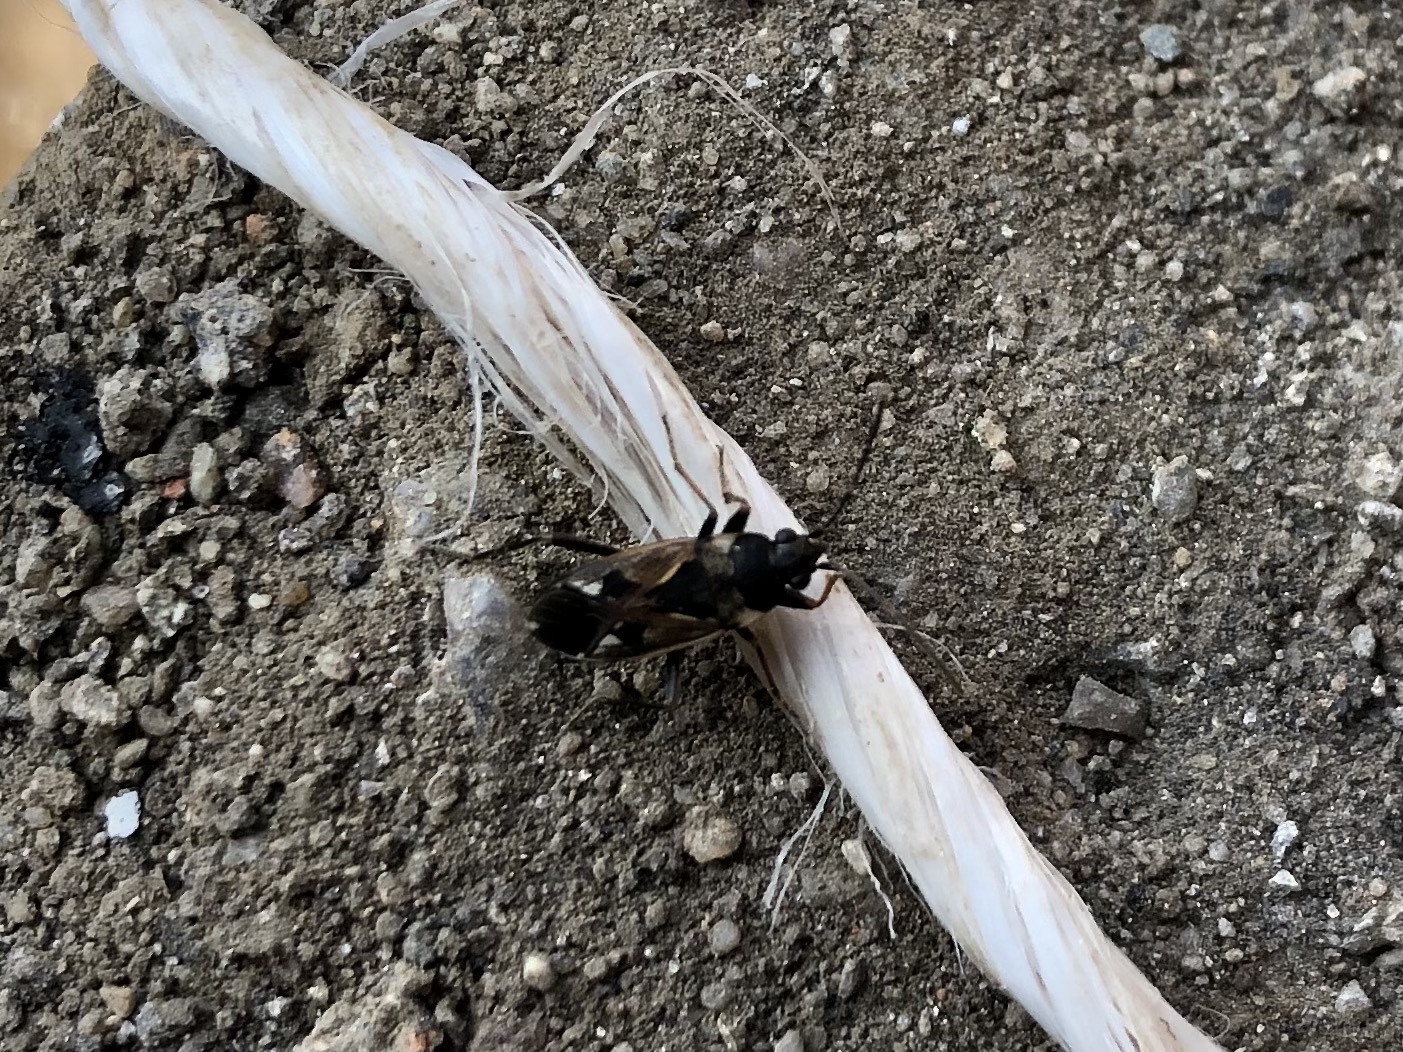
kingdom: Animalia
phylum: Arthropoda
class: Insecta
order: Hemiptera
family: Rhyparochromidae
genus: Rhyparochromus
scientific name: Rhyparochromus vulgaris
